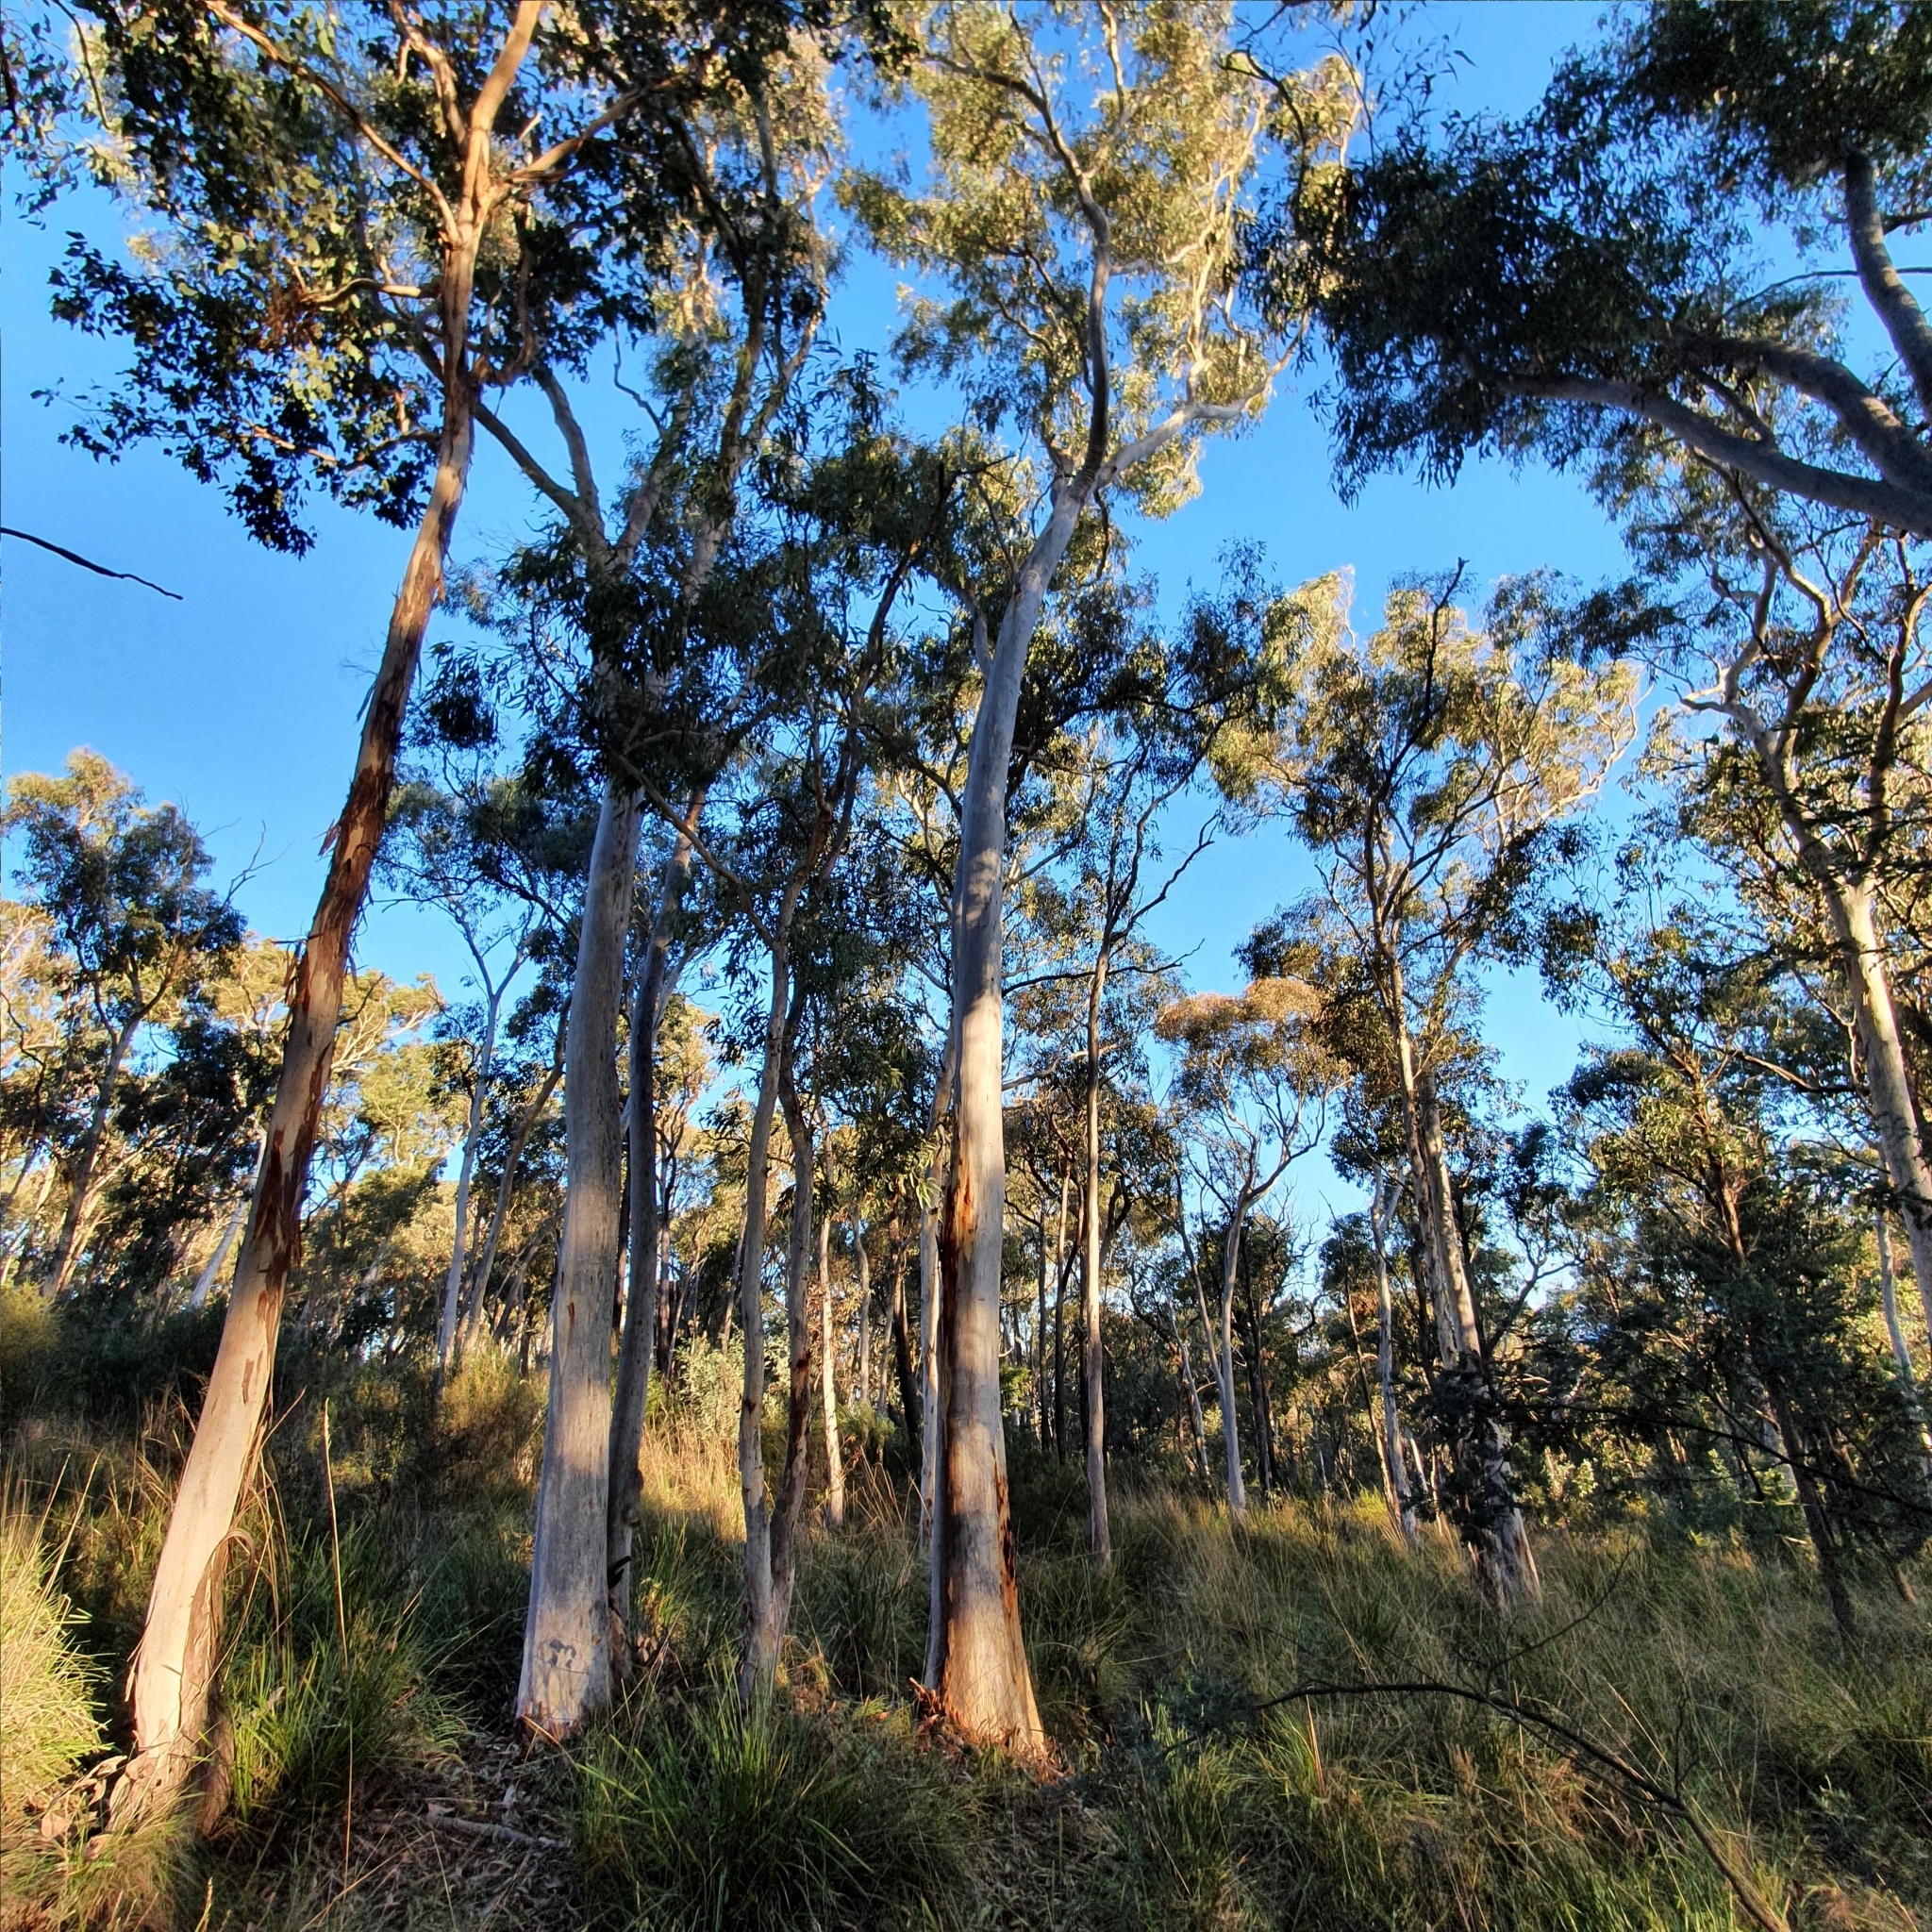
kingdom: Plantae
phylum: Tracheophyta
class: Magnoliopsida
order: Myrtales
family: Myrtaceae
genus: Eucalyptus
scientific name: Eucalyptus racemosa
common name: Scribbly gum
